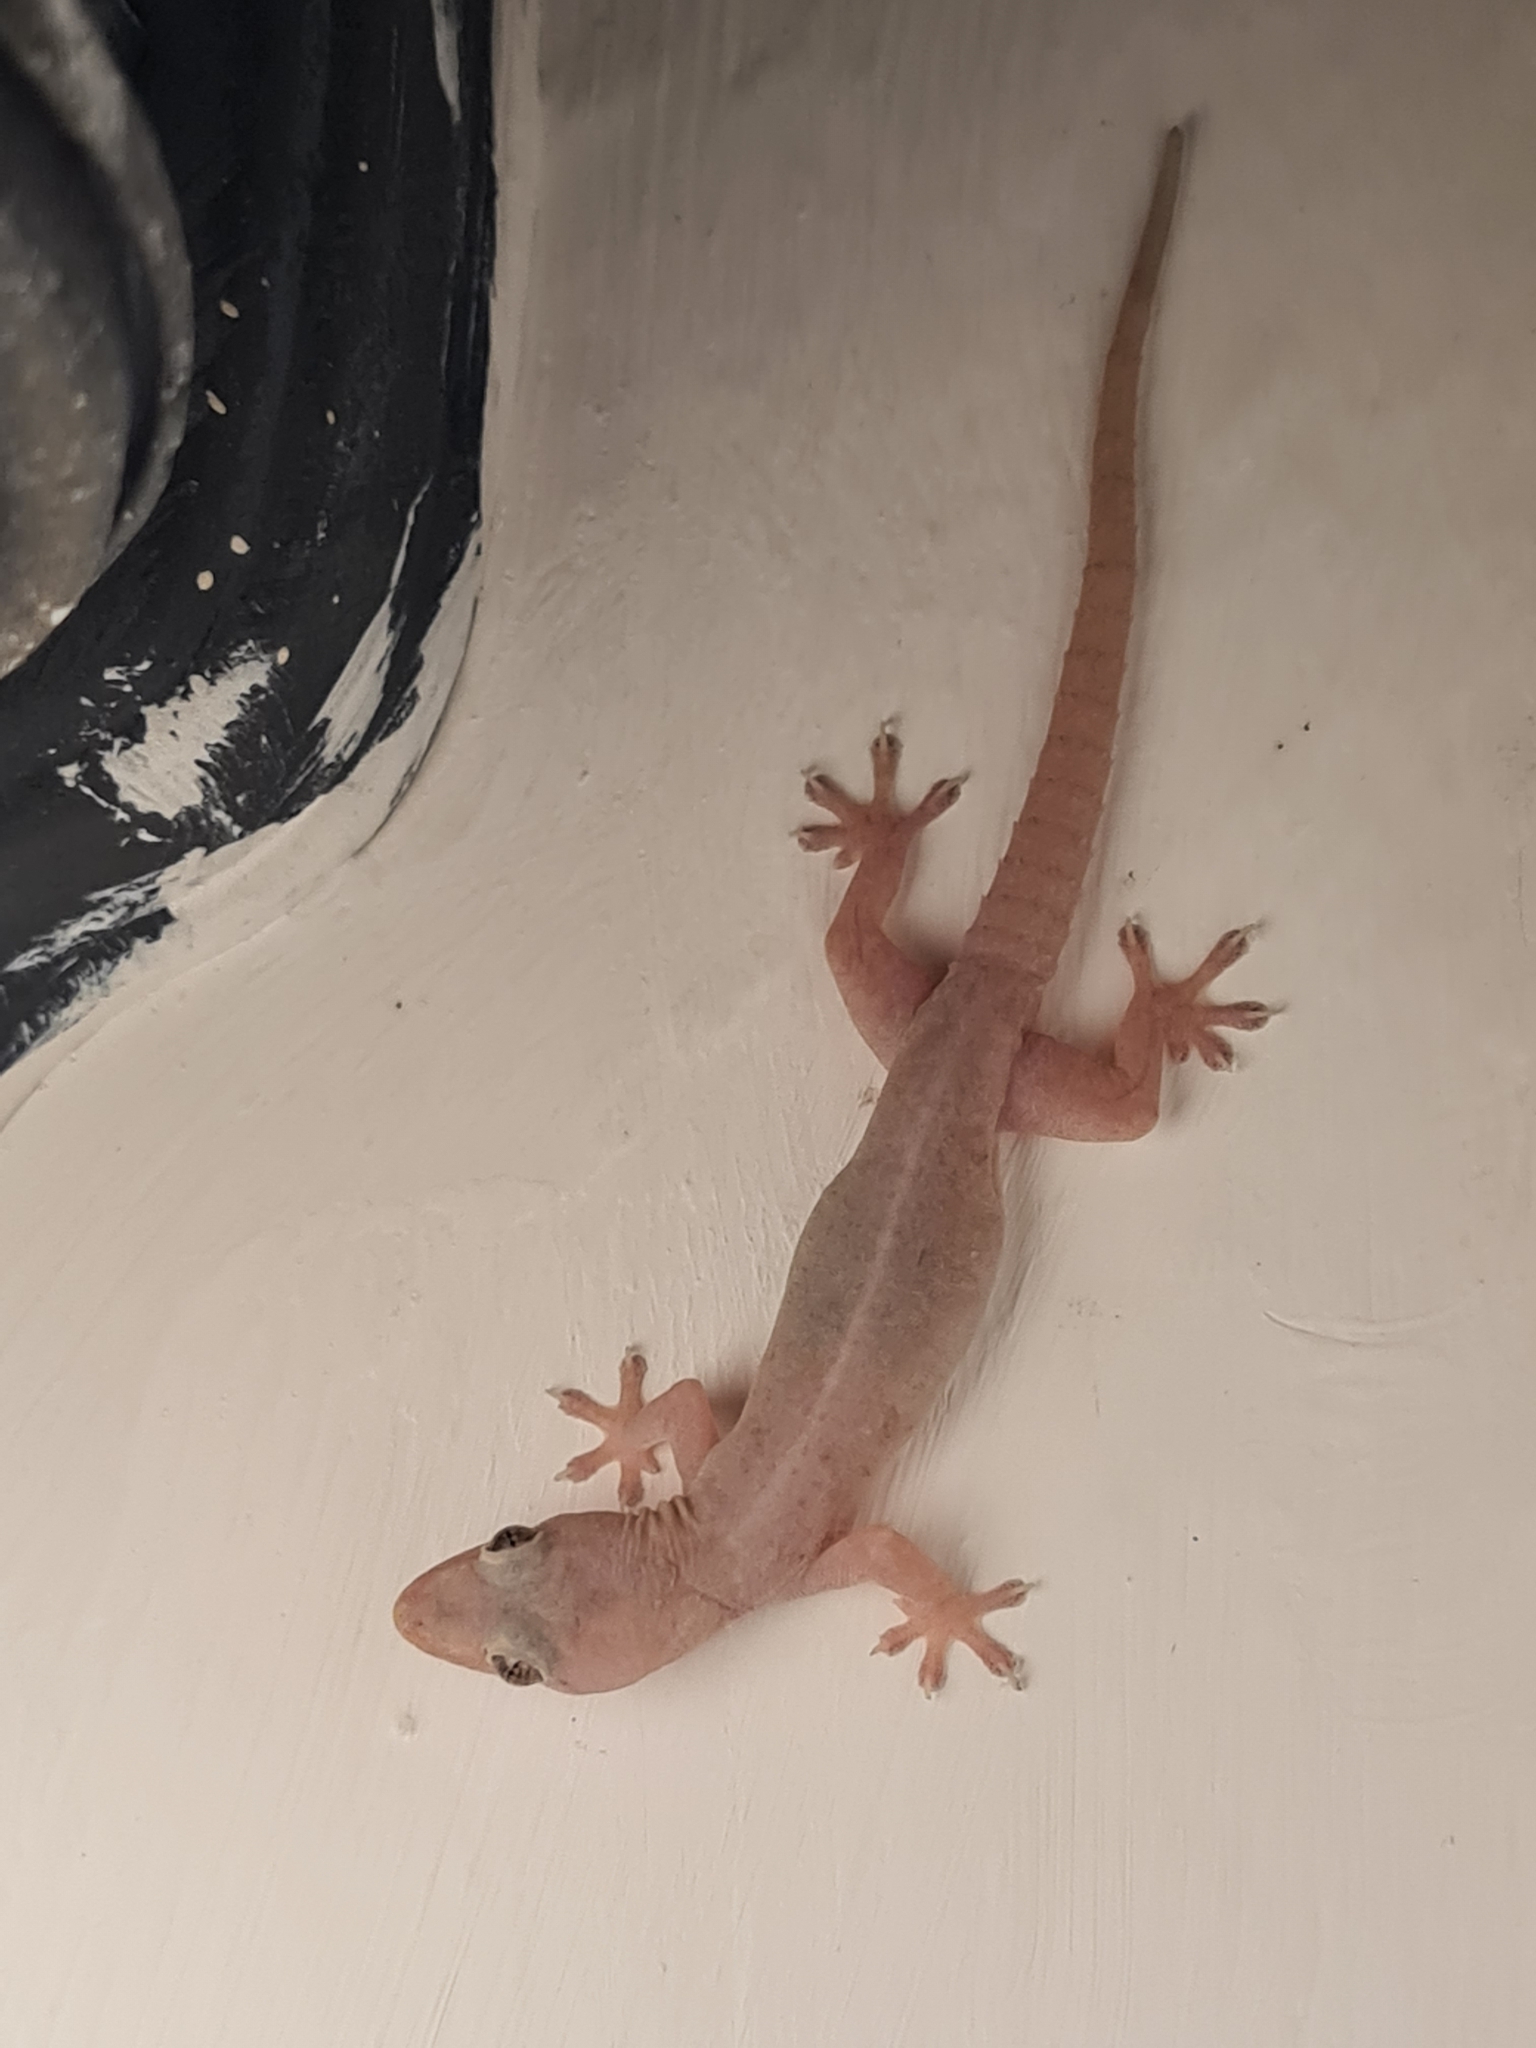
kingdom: Animalia
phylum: Chordata
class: Squamata
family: Gekkonidae
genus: Hemidactylus
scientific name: Hemidactylus frenatus
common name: Common house gecko
